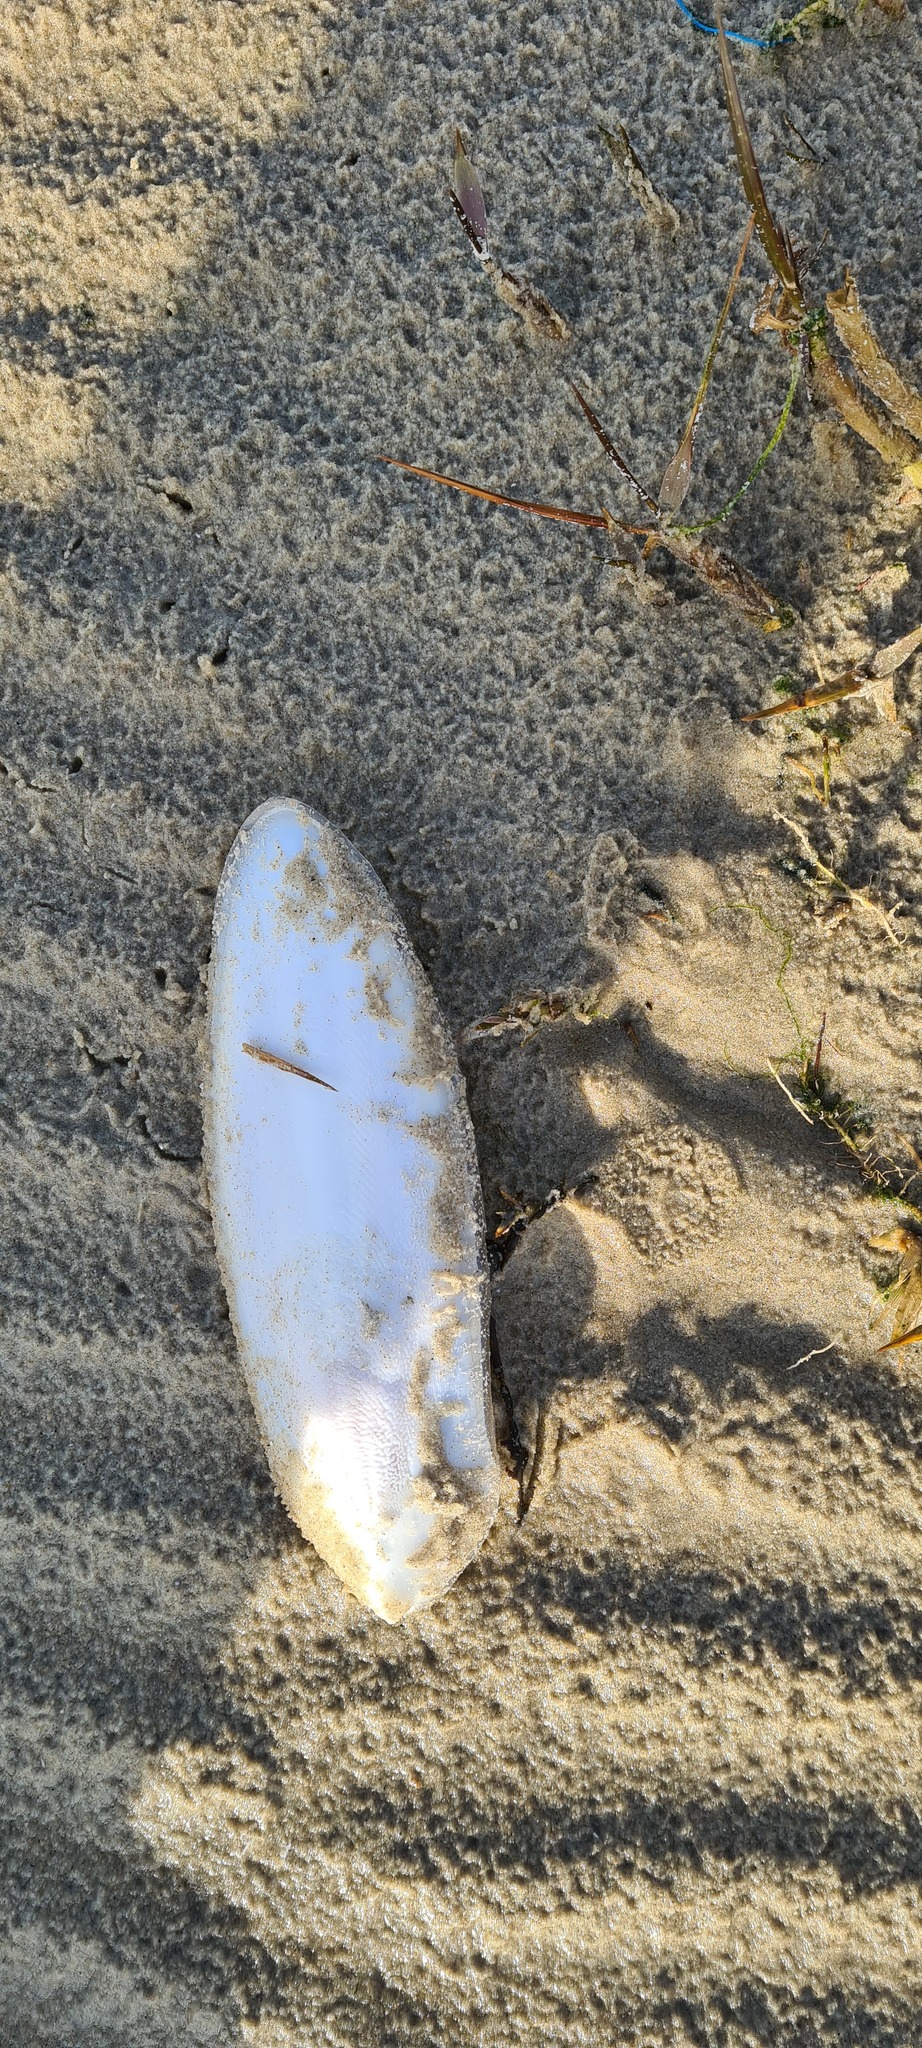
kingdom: Animalia
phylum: Mollusca
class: Cephalopoda
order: Sepiida
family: Sepiidae
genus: Sepia
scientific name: Sepia officinalis
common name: Common cuttlefish
